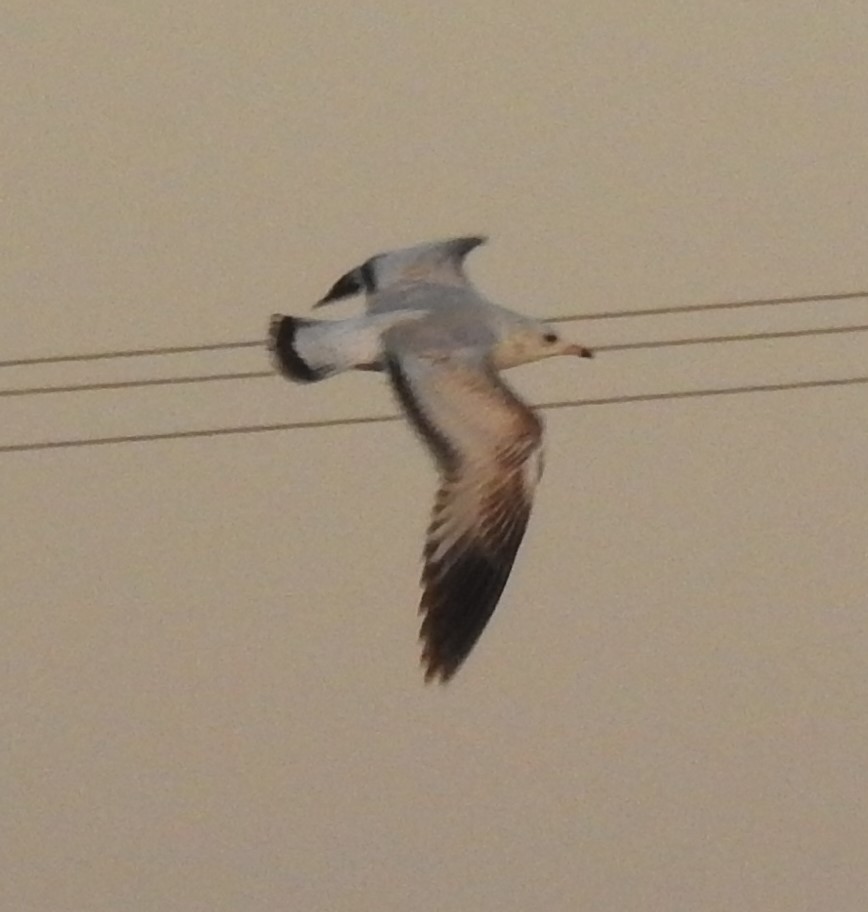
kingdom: Animalia
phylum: Chordata
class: Aves
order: Charadriiformes
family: Laridae
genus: Larus
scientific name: Larus delawarensis
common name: Ring-billed gull
